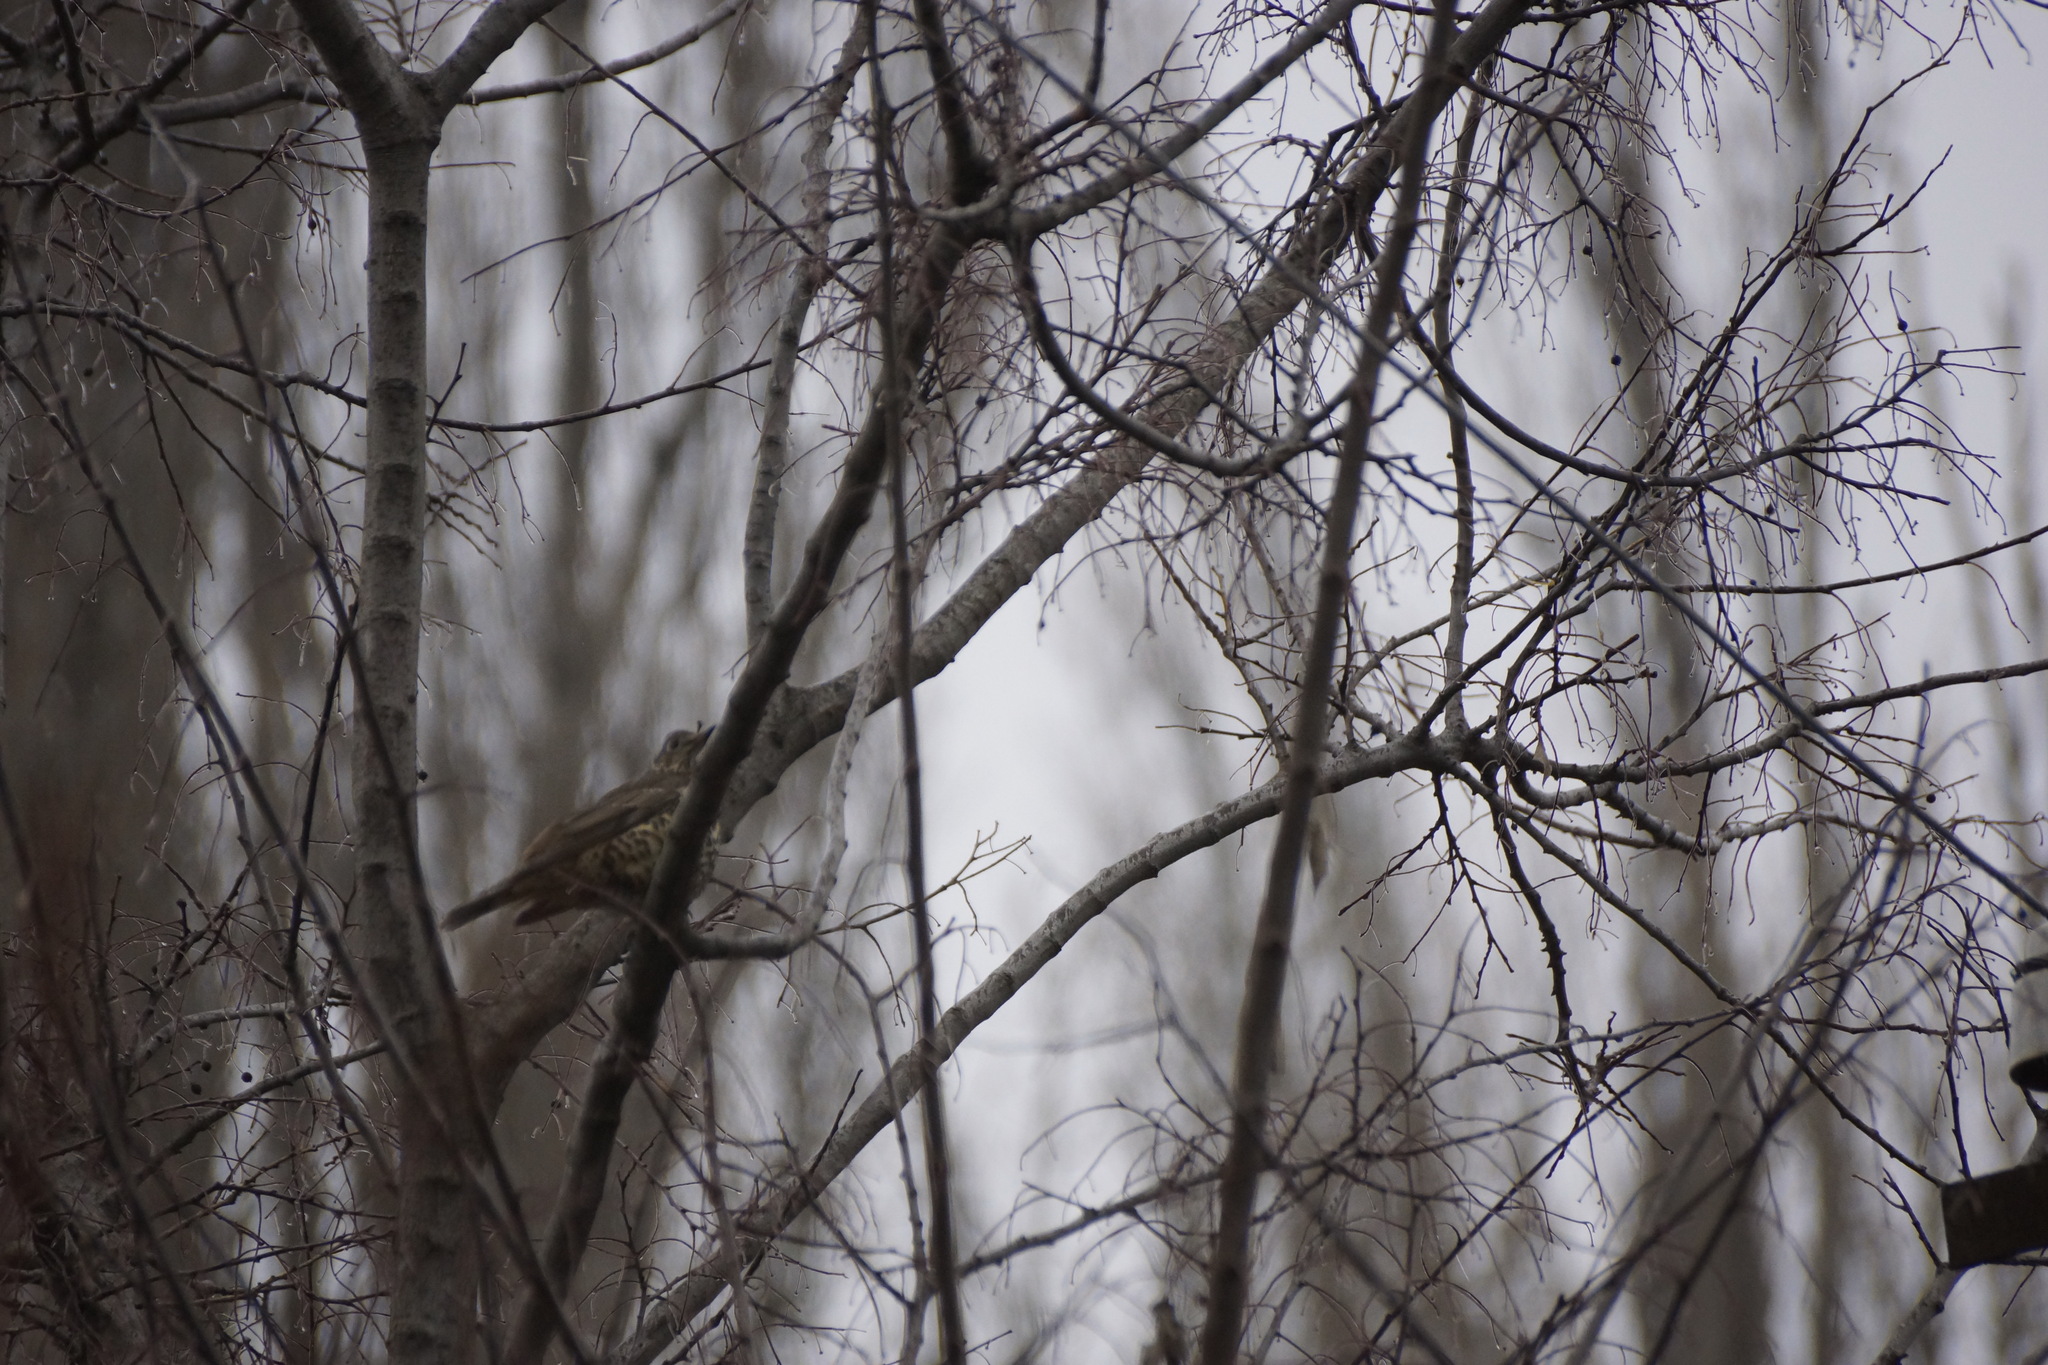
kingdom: Animalia
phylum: Chordata
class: Aves
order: Passeriformes
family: Turdidae
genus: Turdus
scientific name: Turdus viscivorus
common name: Mistle thrush
